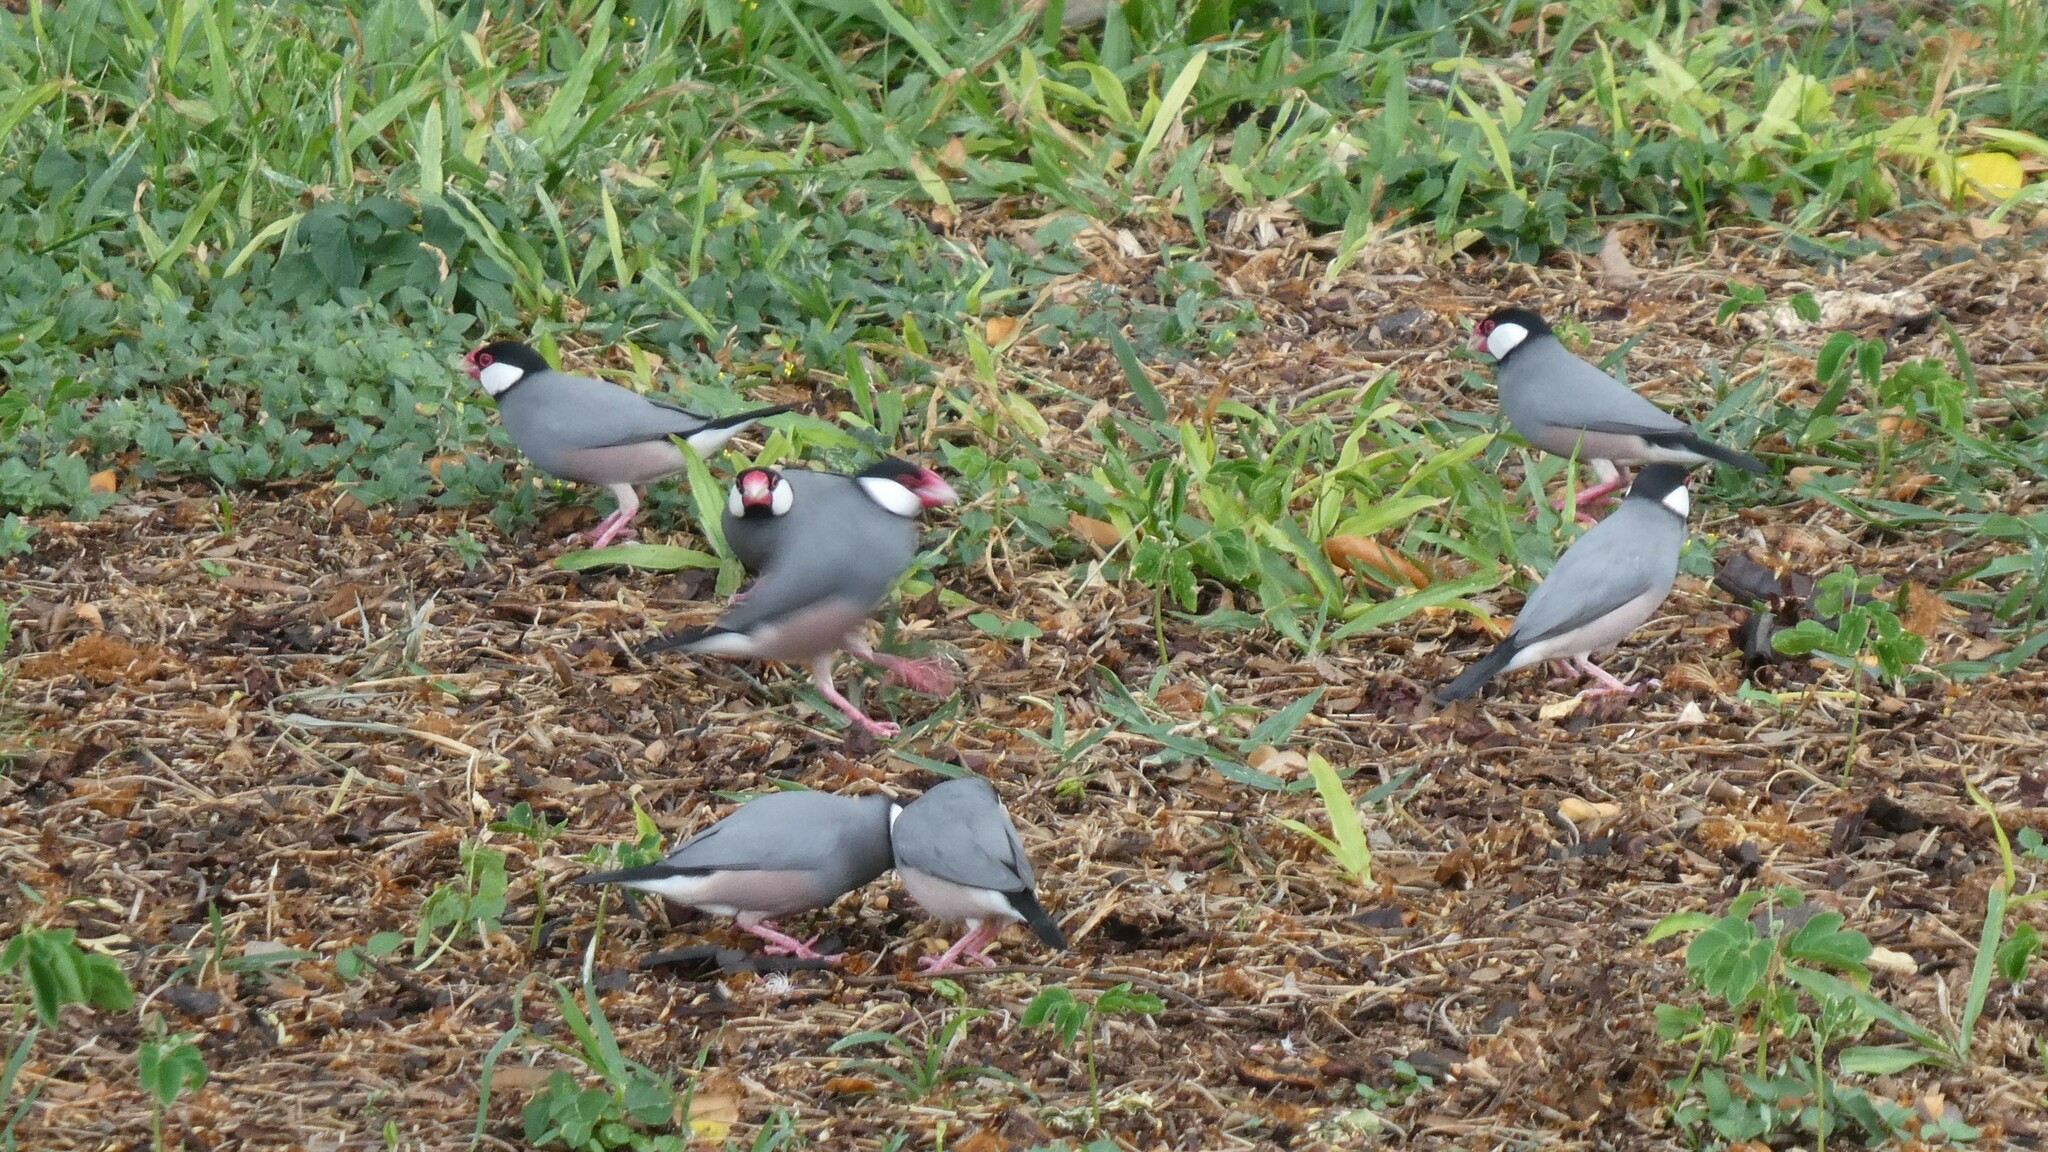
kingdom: Animalia
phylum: Chordata
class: Aves
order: Passeriformes
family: Estrildidae
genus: Lonchura
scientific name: Lonchura oryzivora
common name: Java sparrow
